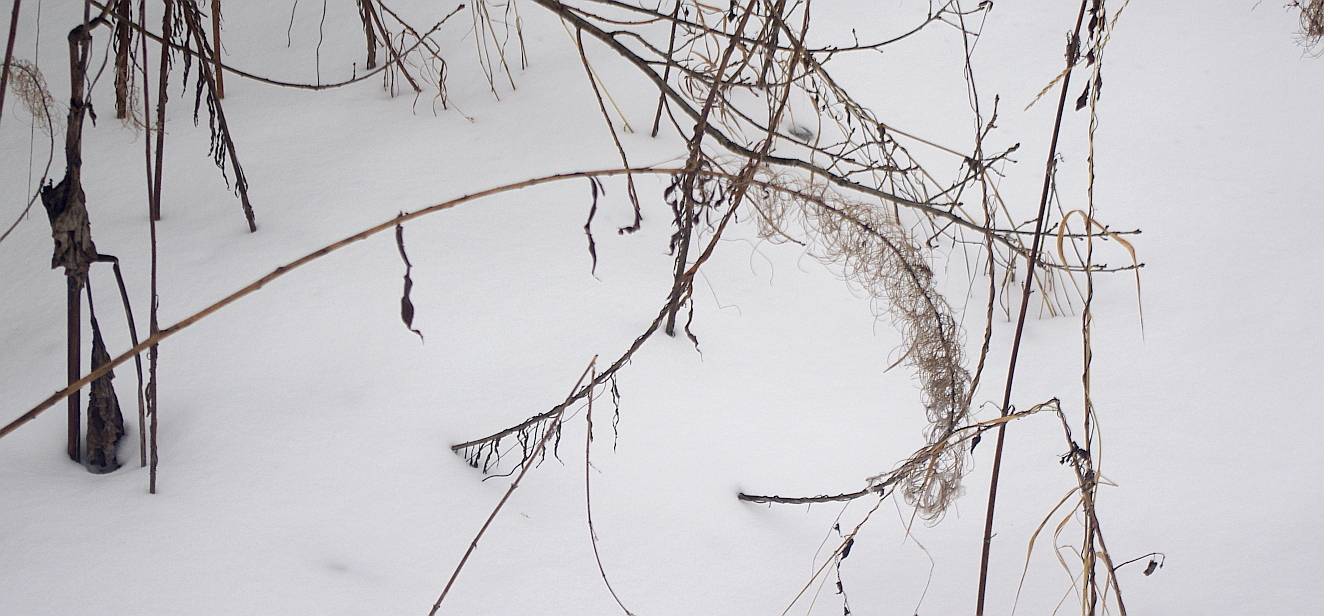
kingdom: Plantae
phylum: Tracheophyta
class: Magnoliopsida
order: Myrtales
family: Onagraceae
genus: Chamaenerion
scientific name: Chamaenerion angustifolium
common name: Fireweed
